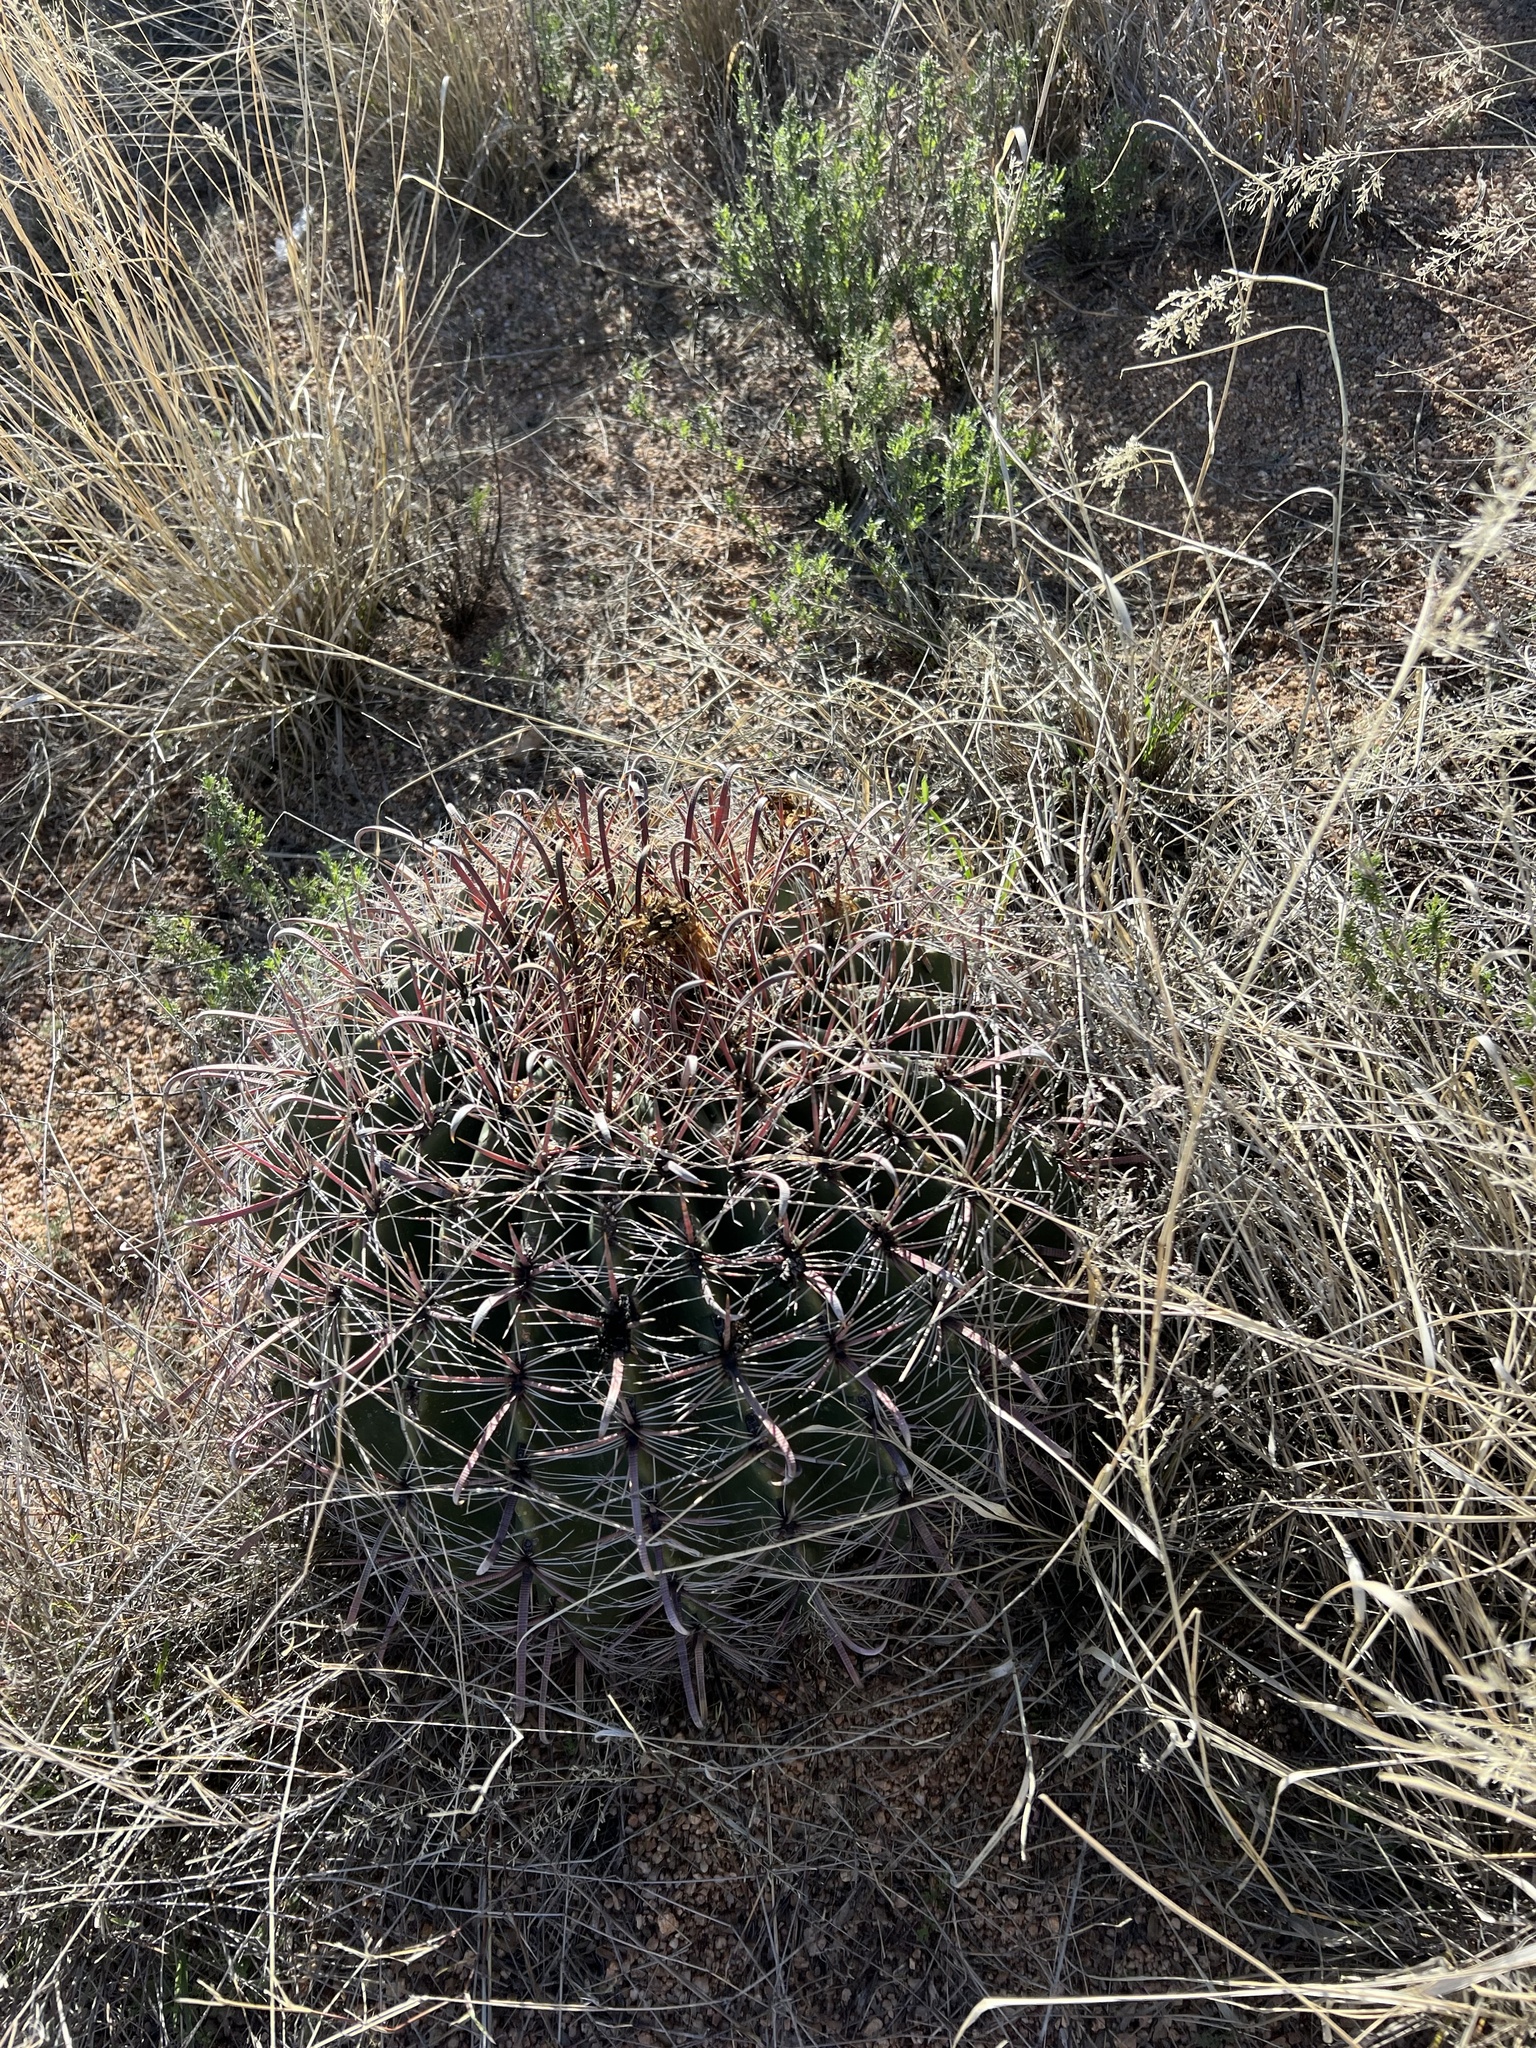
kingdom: Plantae
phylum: Tracheophyta
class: Magnoliopsida
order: Caryophyllales
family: Cactaceae
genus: Ferocactus
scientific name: Ferocactus wislizeni
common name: Candy barrel cactus
